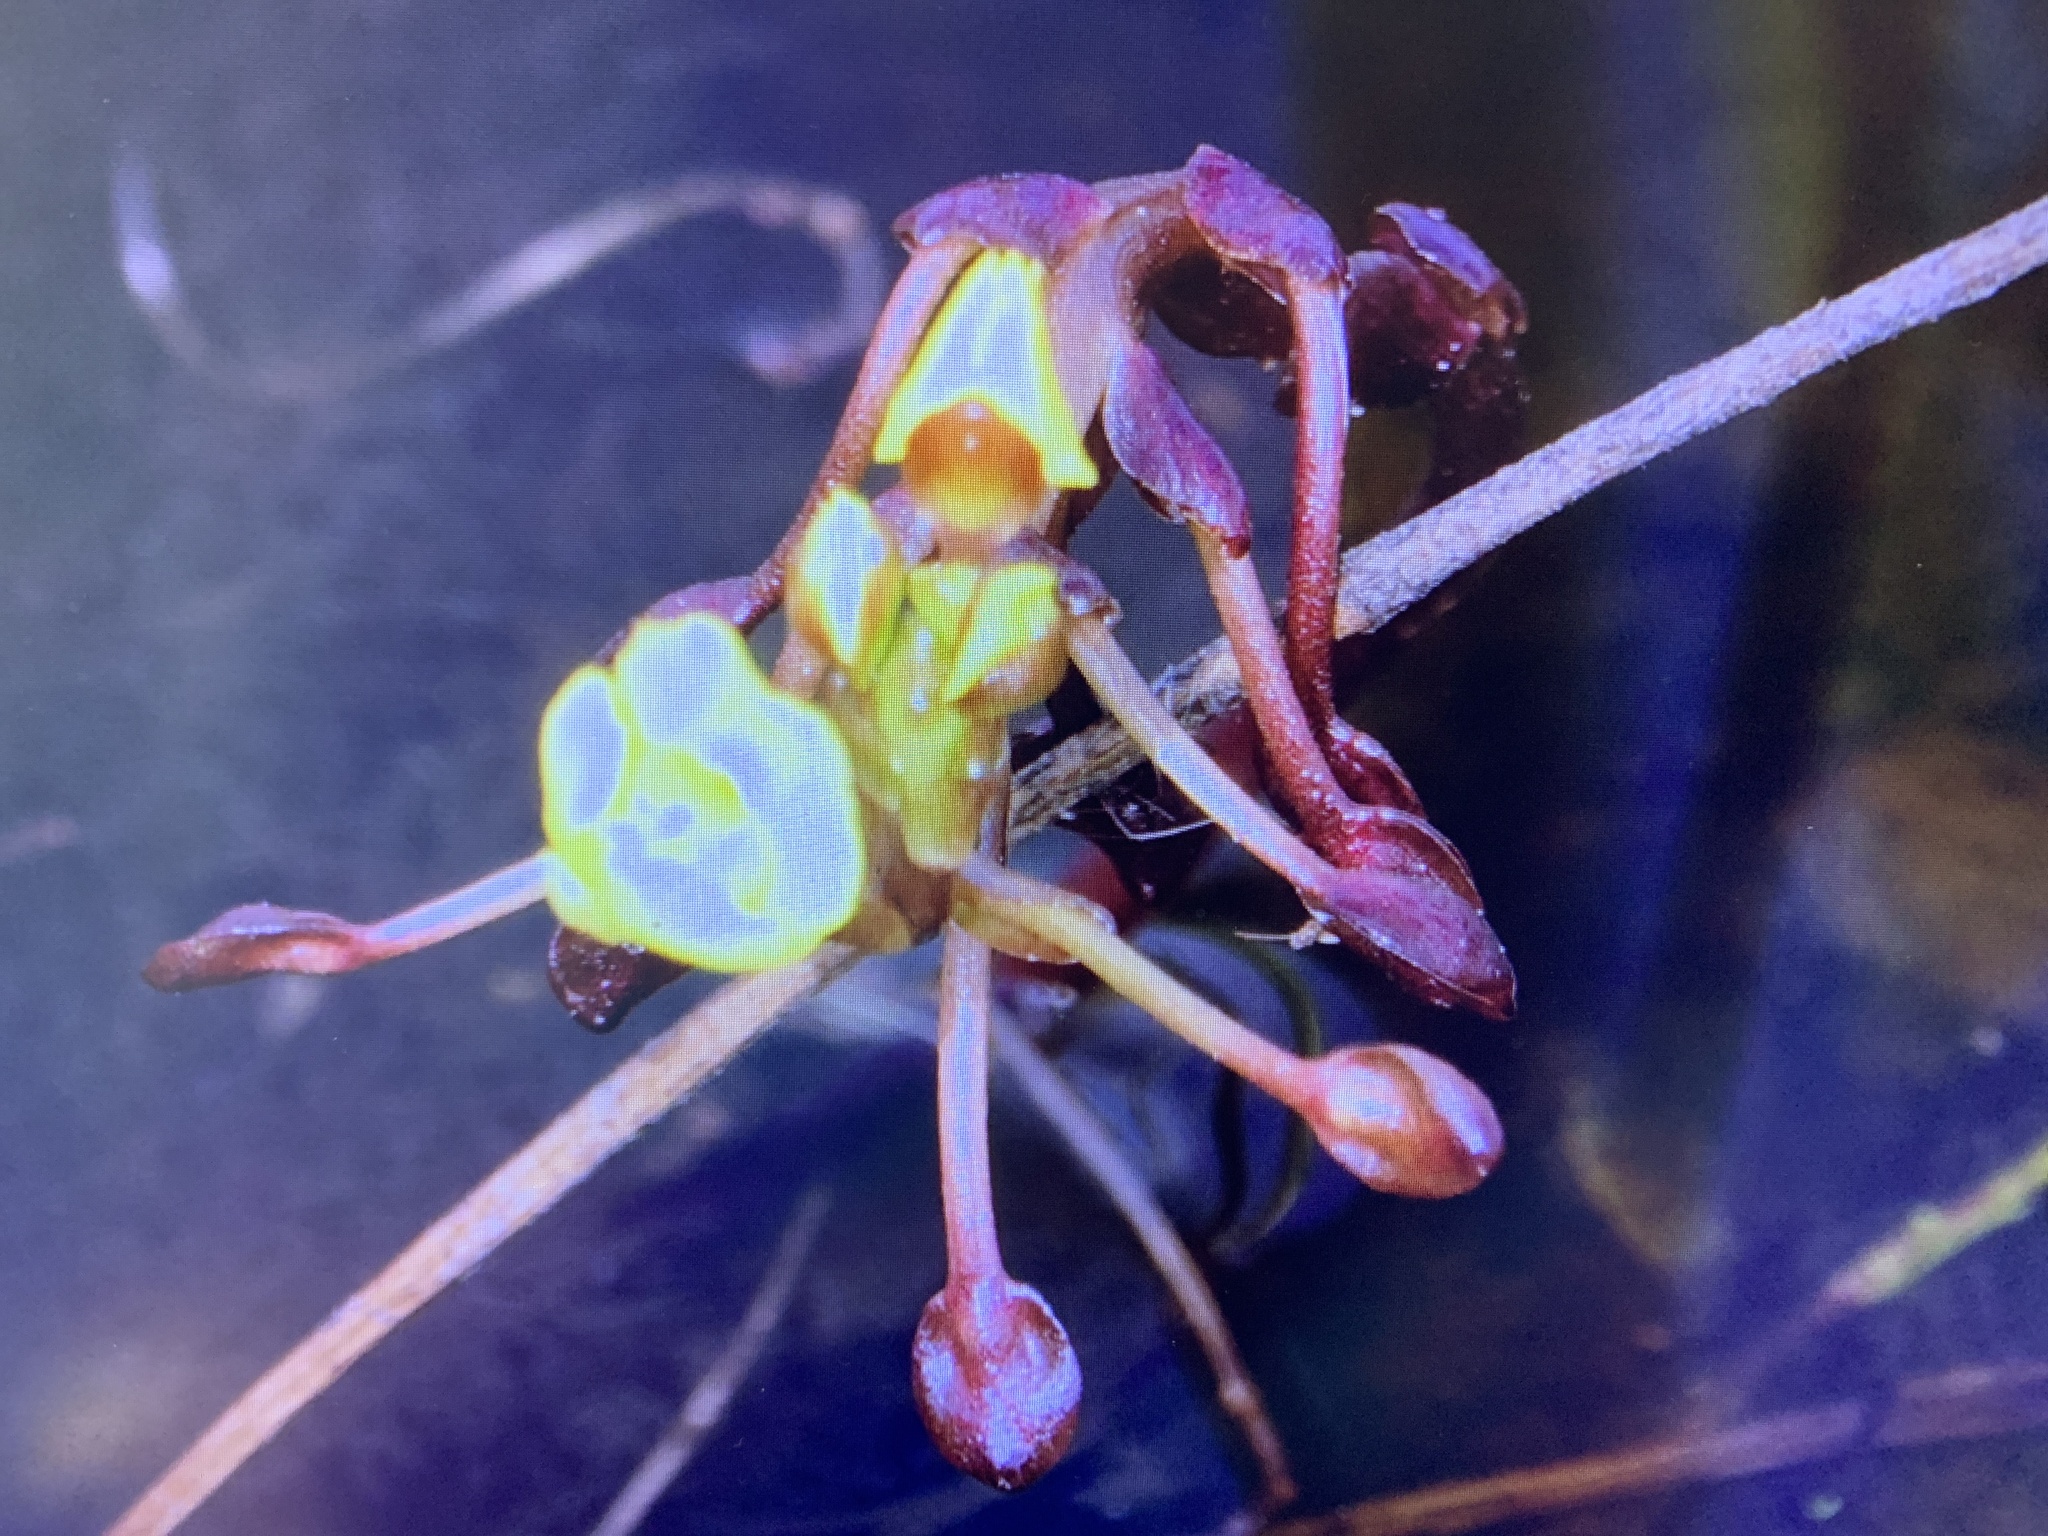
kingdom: Plantae
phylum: Tracheophyta
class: Magnoliopsida
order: Lamiales
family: Lentibulariaceae
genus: Utricularia
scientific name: Utricularia foliosa
